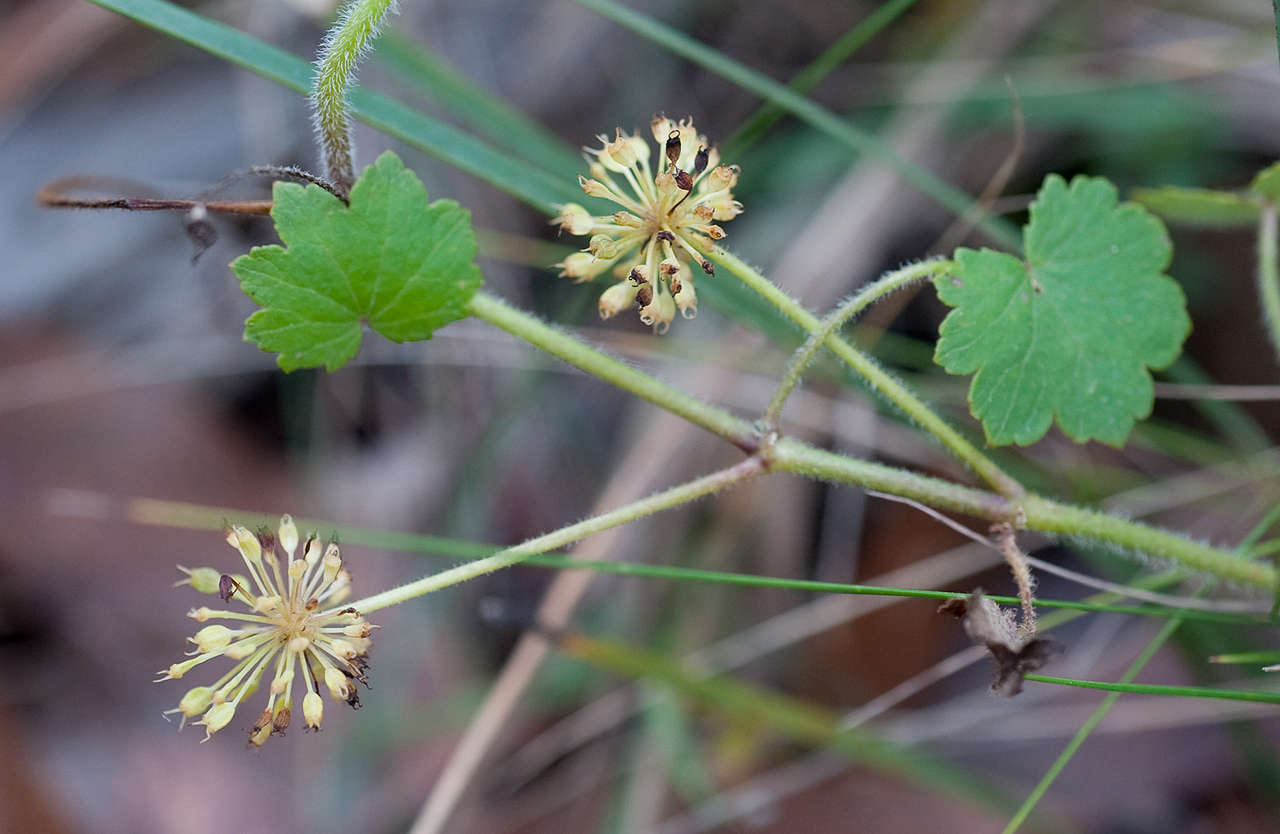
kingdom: Plantae
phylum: Tracheophyta
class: Magnoliopsida
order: Apiales
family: Araliaceae
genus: Hydrocotyle
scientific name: Hydrocotyle laxiflora
